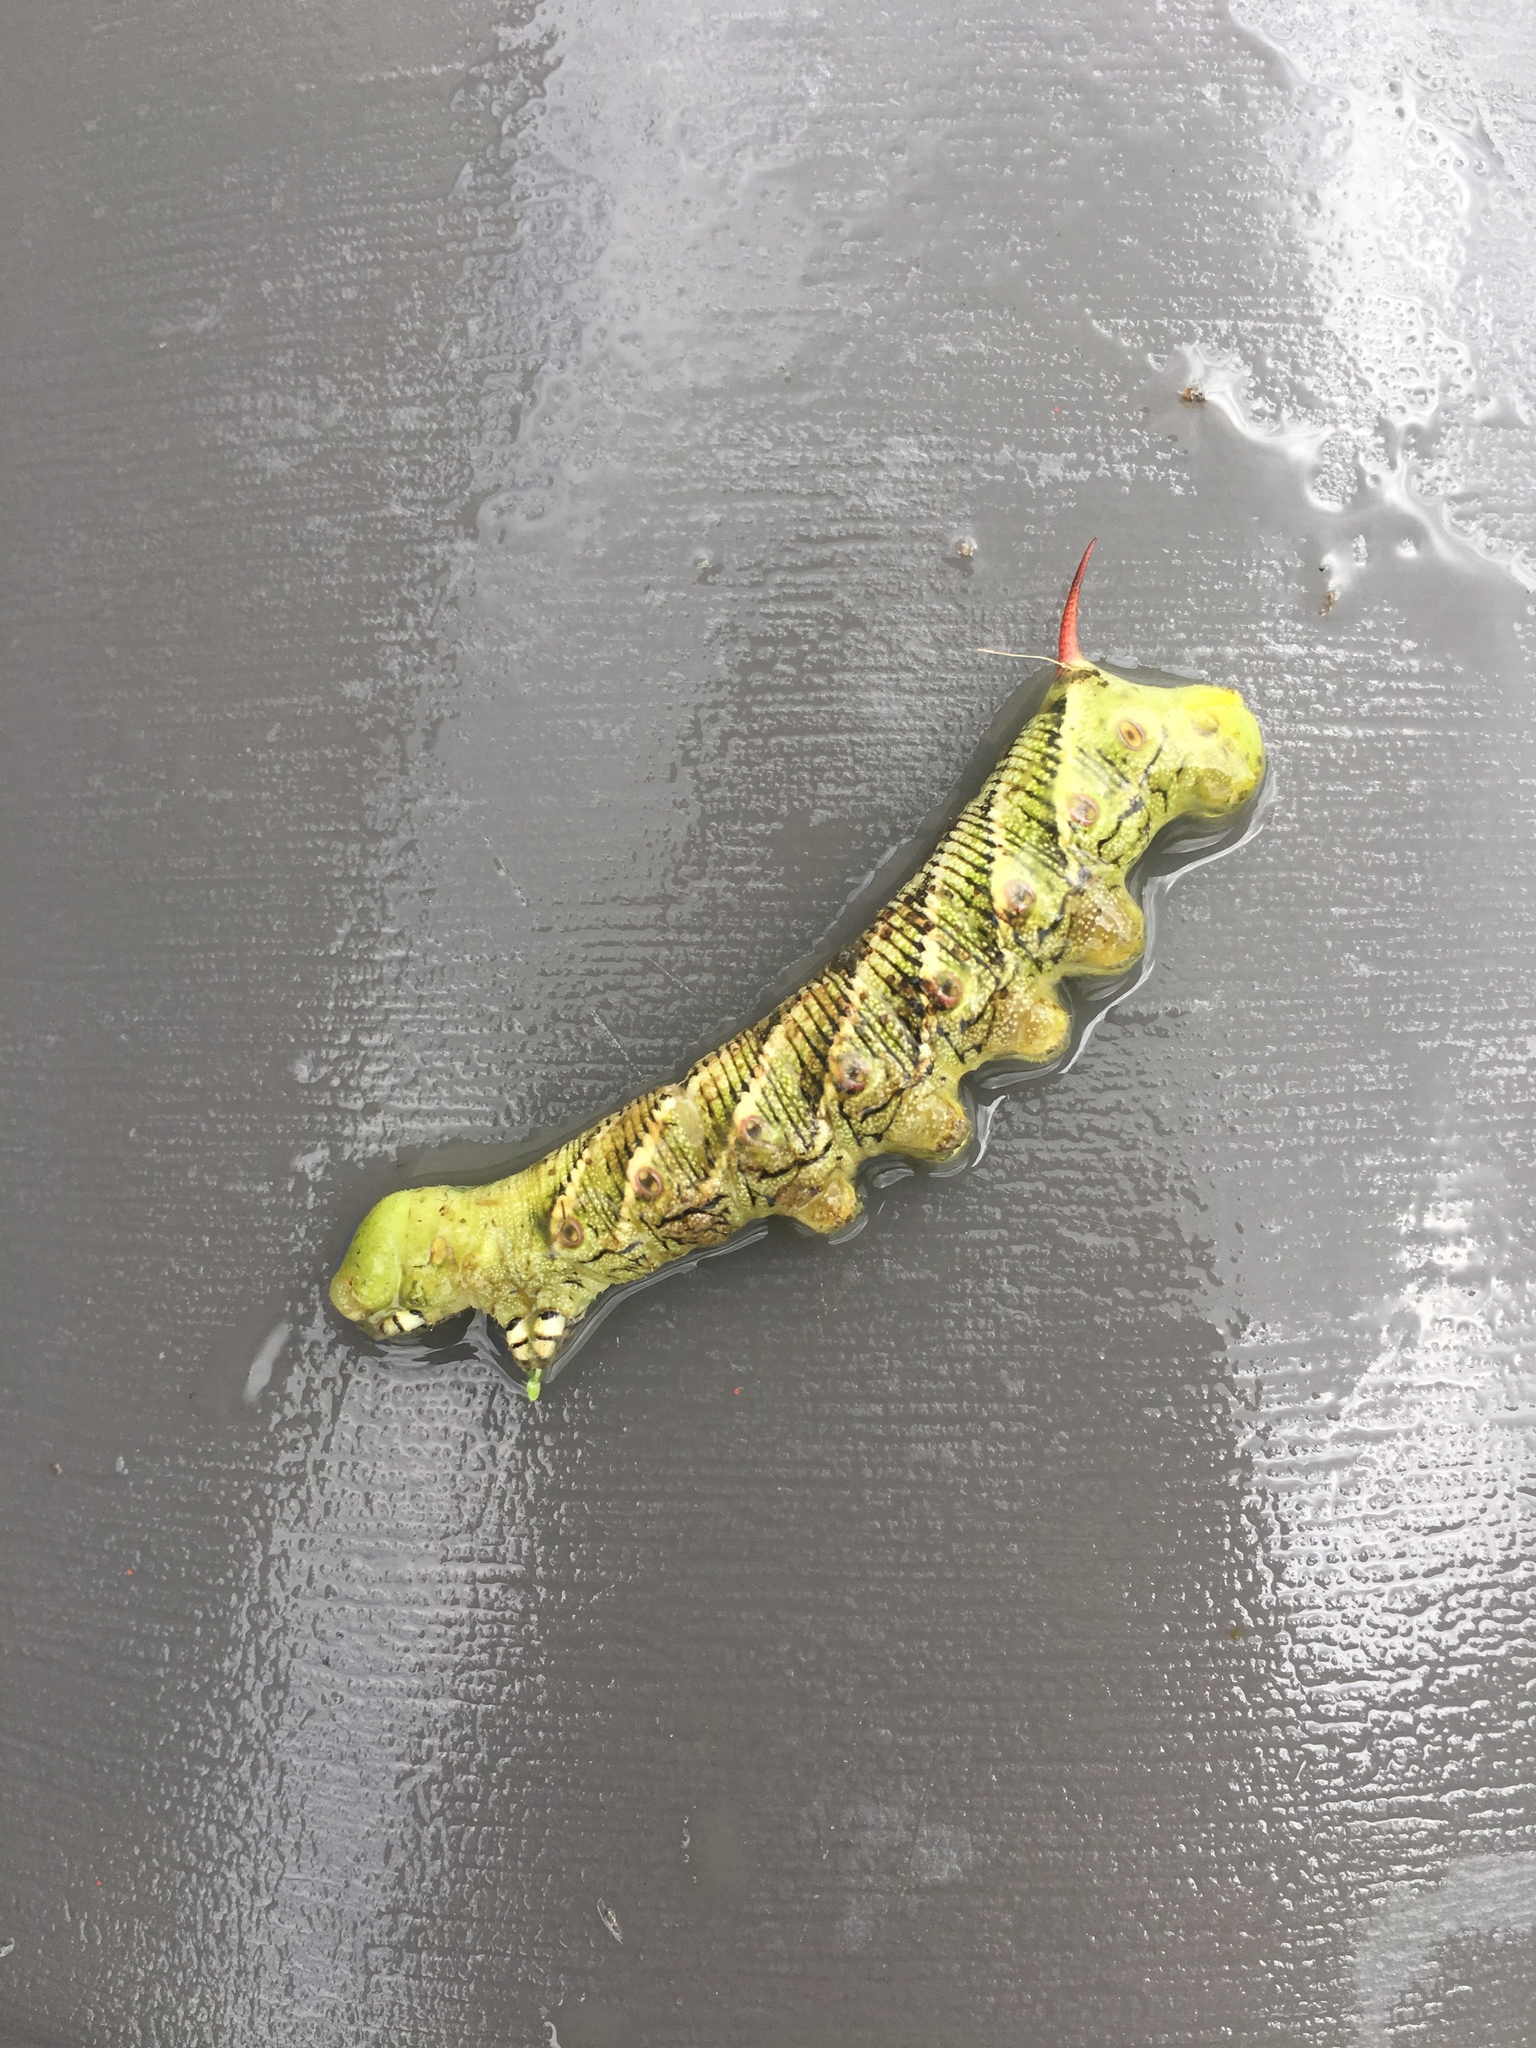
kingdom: Animalia
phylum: Arthropoda
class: Insecta
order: Lepidoptera
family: Sphingidae
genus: Manduca
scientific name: Manduca sexta
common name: Carolina sphinx
